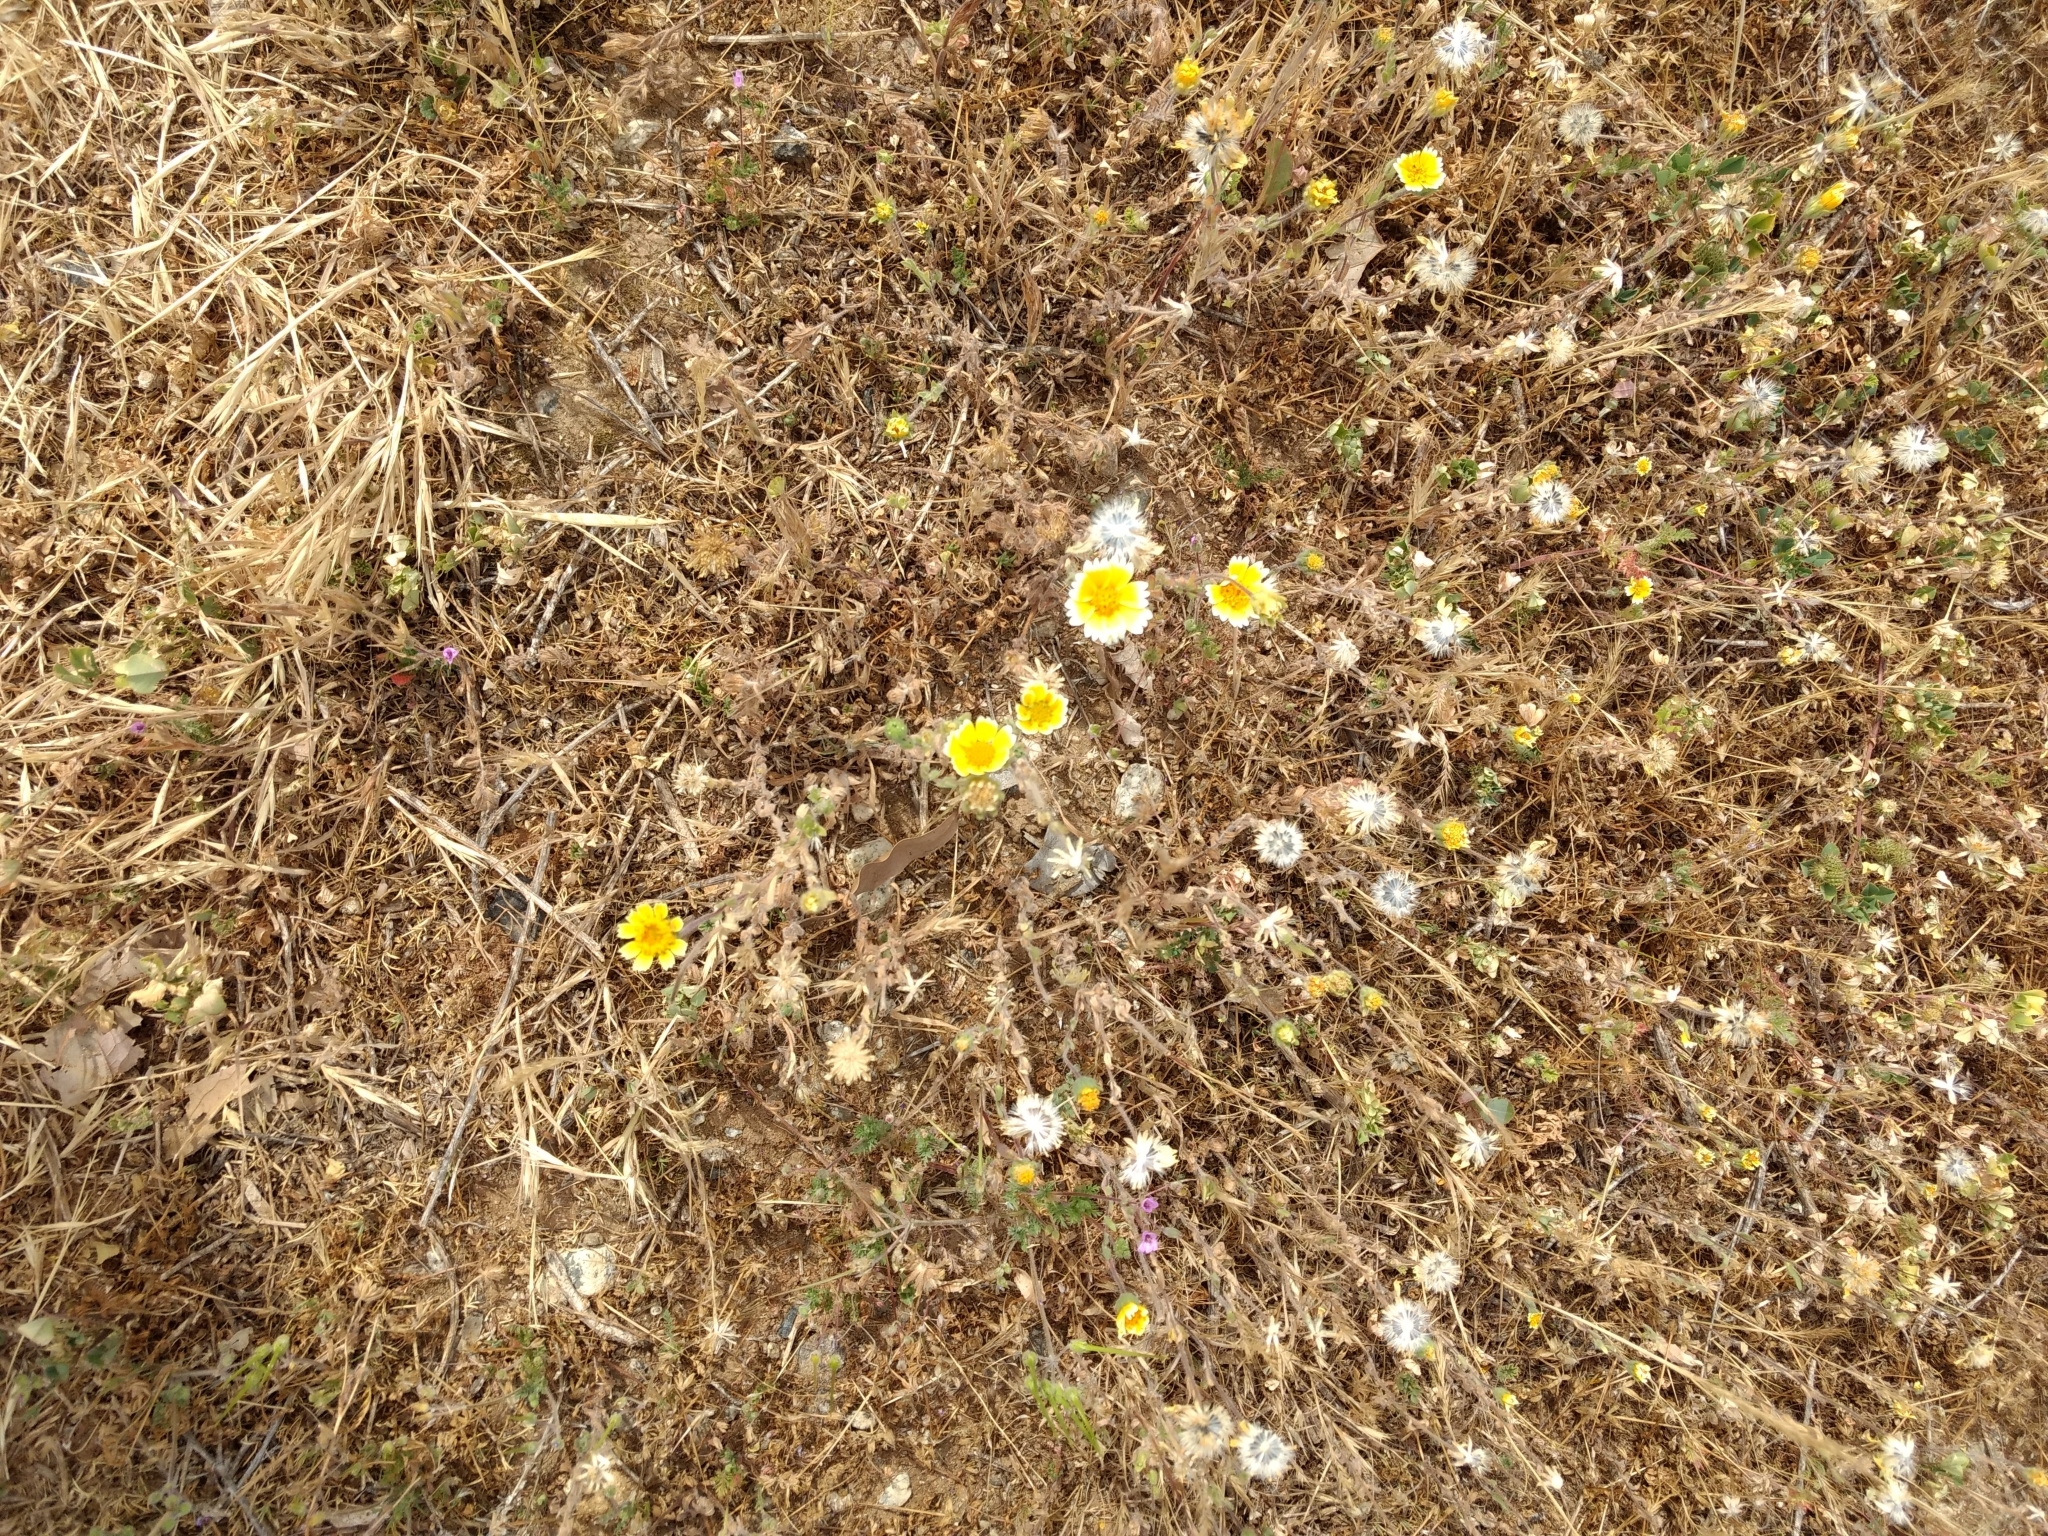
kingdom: Plantae
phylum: Tracheophyta
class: Magnoliopsida
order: Asterales
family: Asteraceae
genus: Layia
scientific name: Layia platyglossa
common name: Tidy-tips
